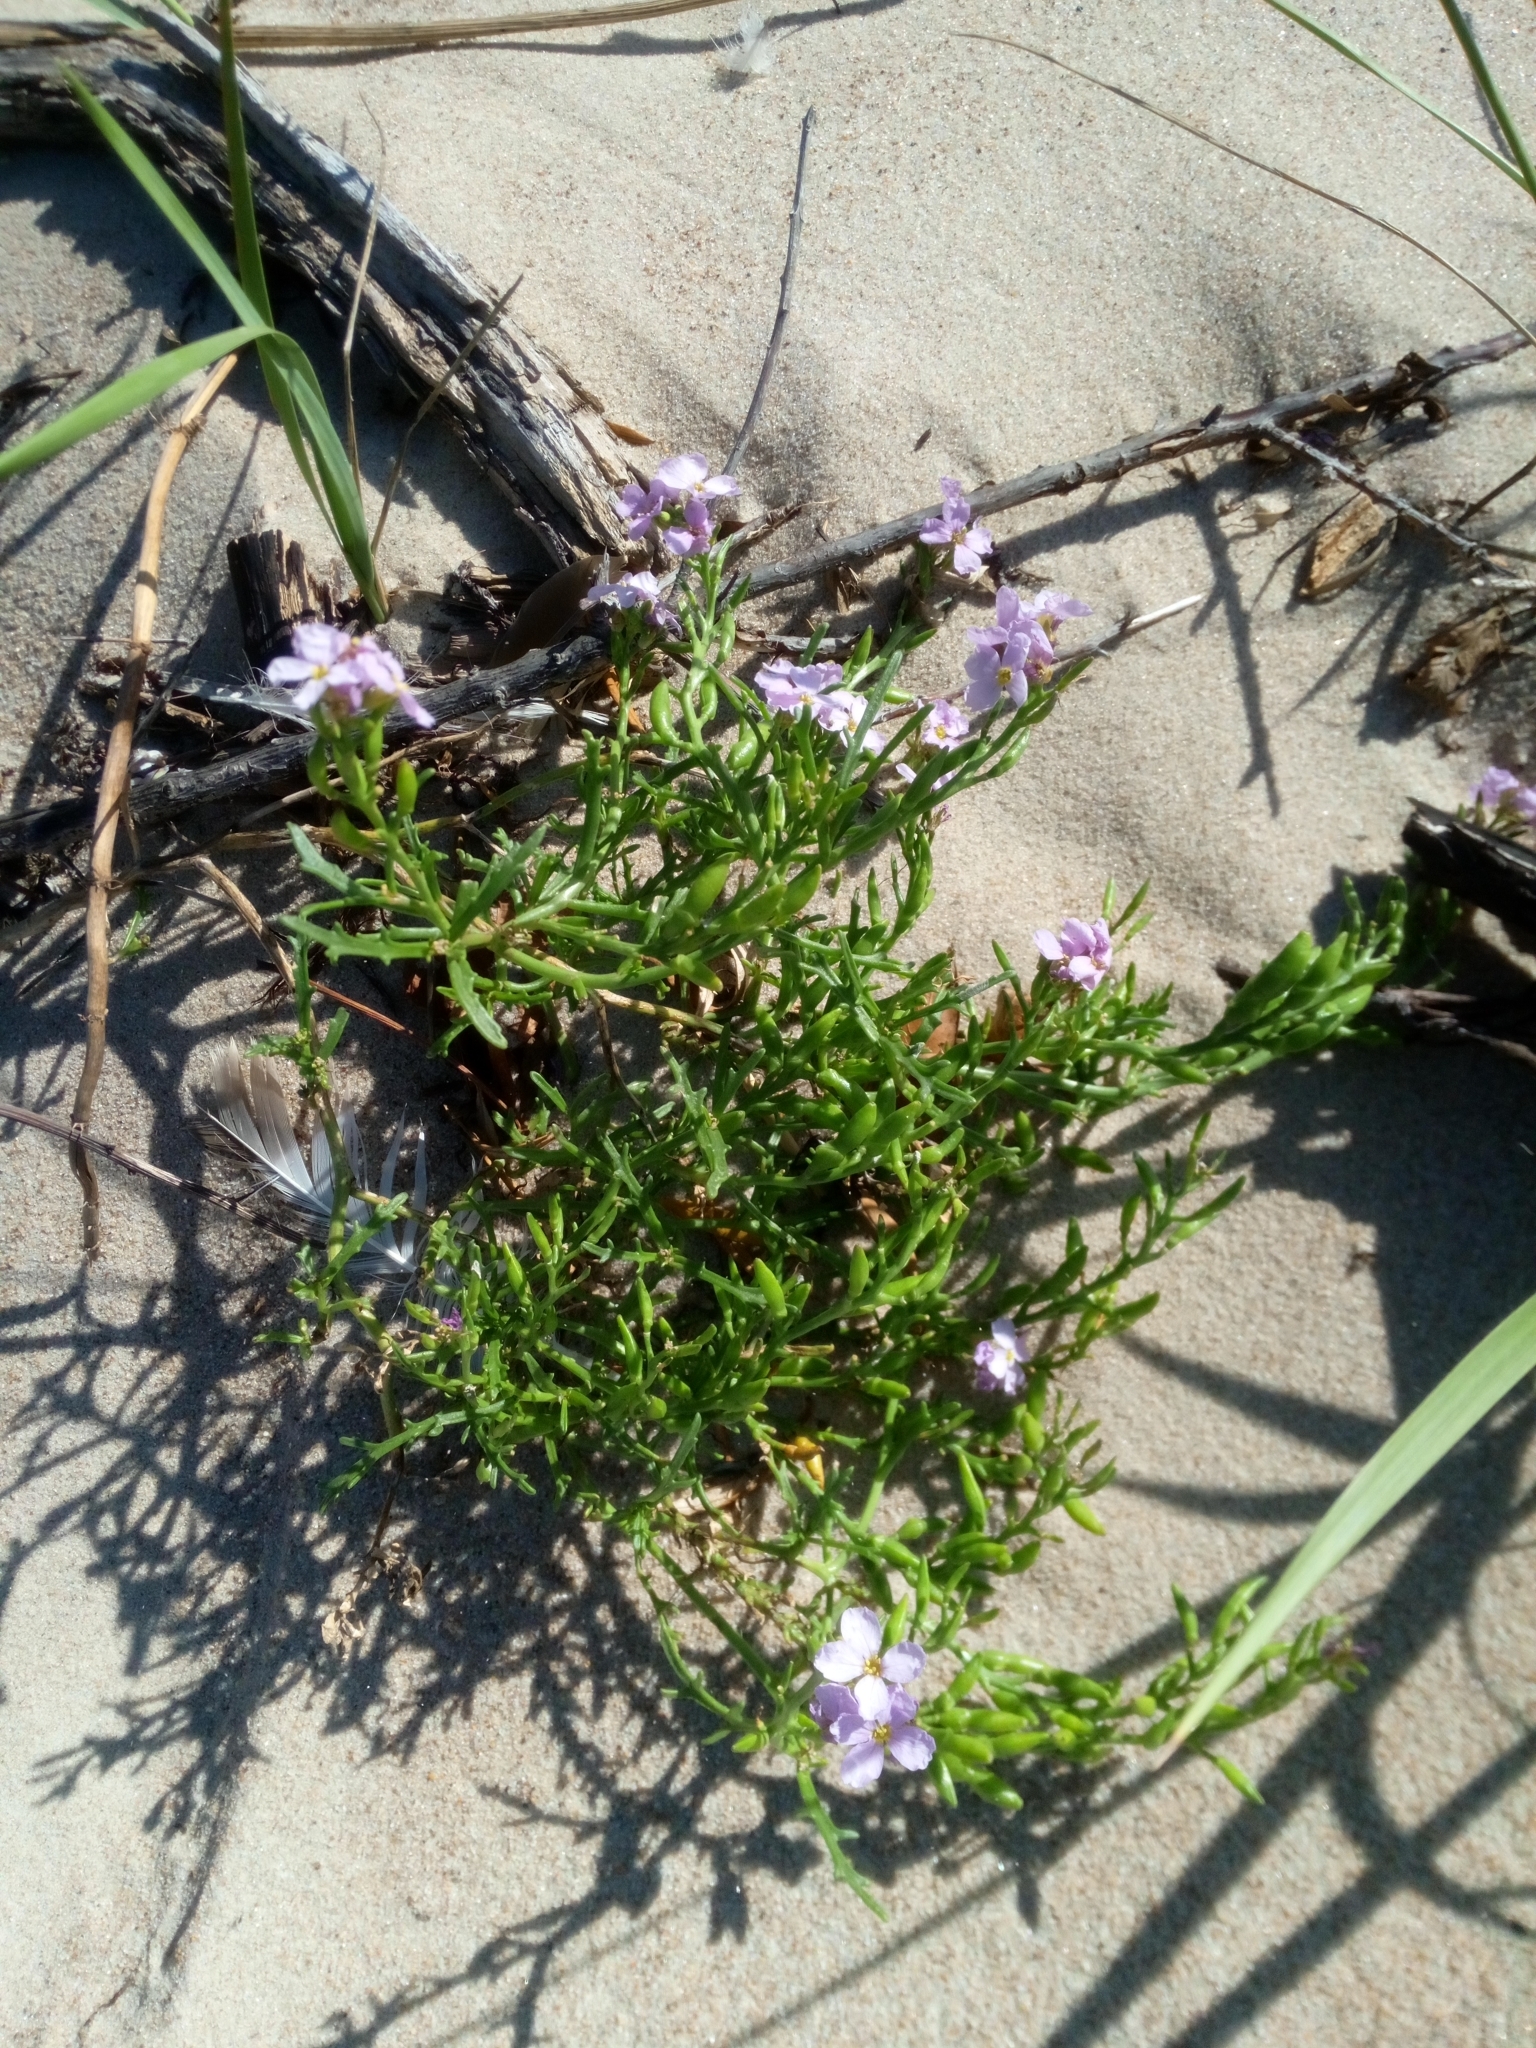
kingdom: Plantae
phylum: Tracheophyta
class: Magnoliopsida
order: Brassicales
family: Brassicaceae
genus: Cakile
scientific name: Cakile maritima
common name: Sea rocket
